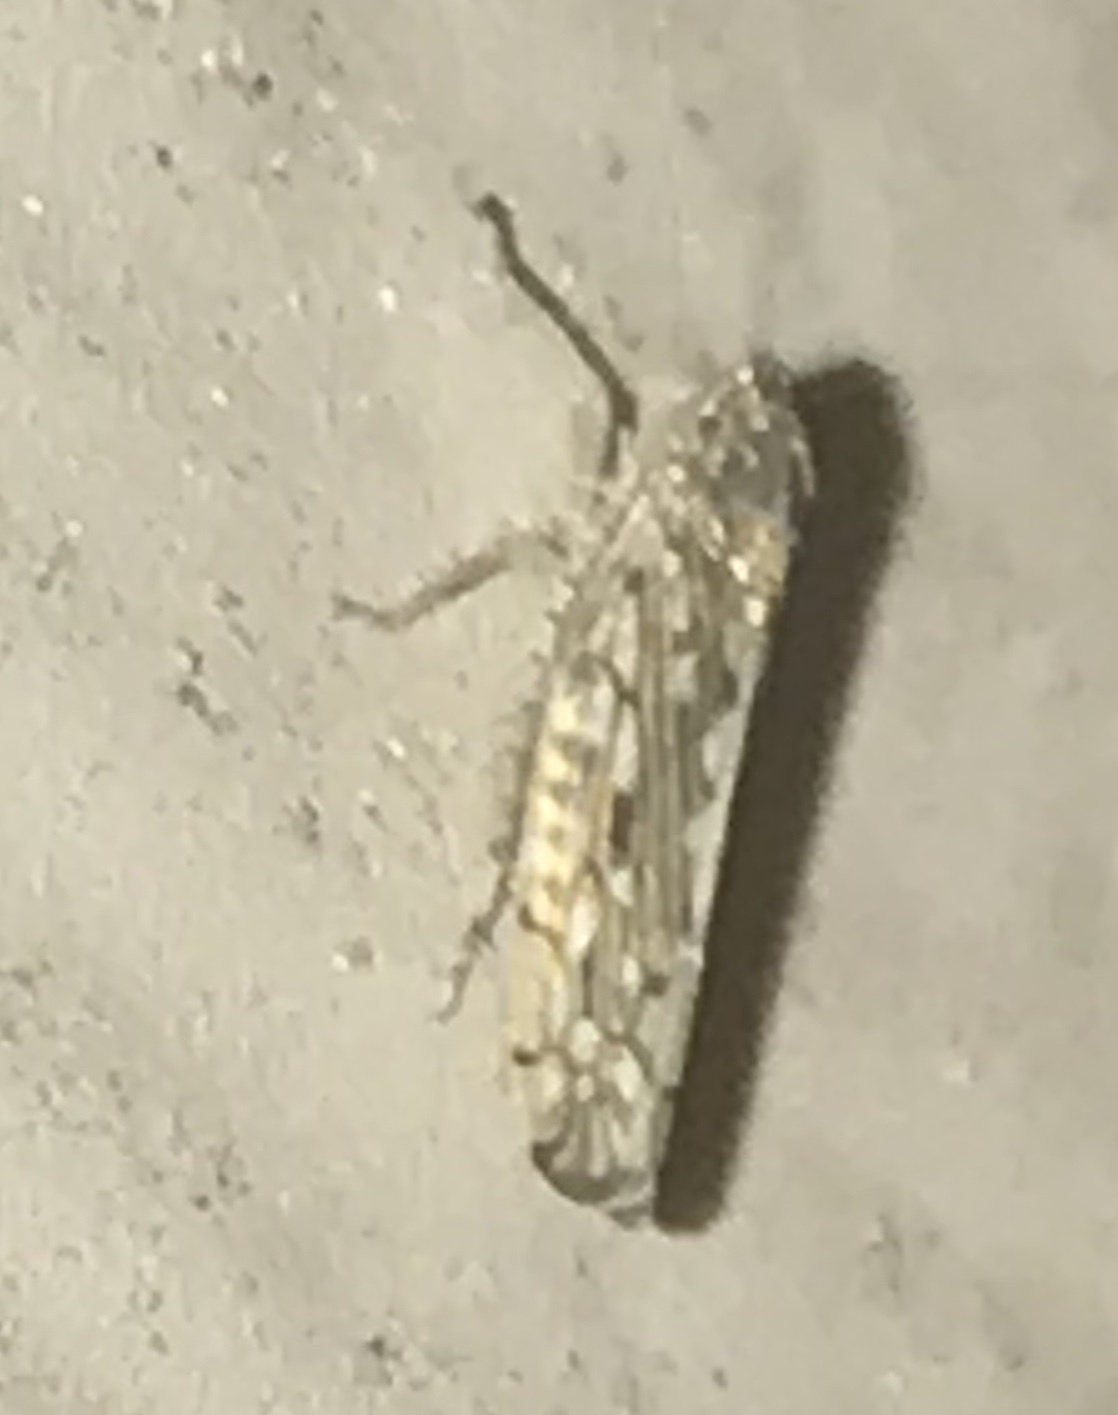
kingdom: Animalia
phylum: Arthropoda
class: Insecta
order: Hemiptera
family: Cicadellidae
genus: Osbornellus
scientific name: Osbornellus clarus
